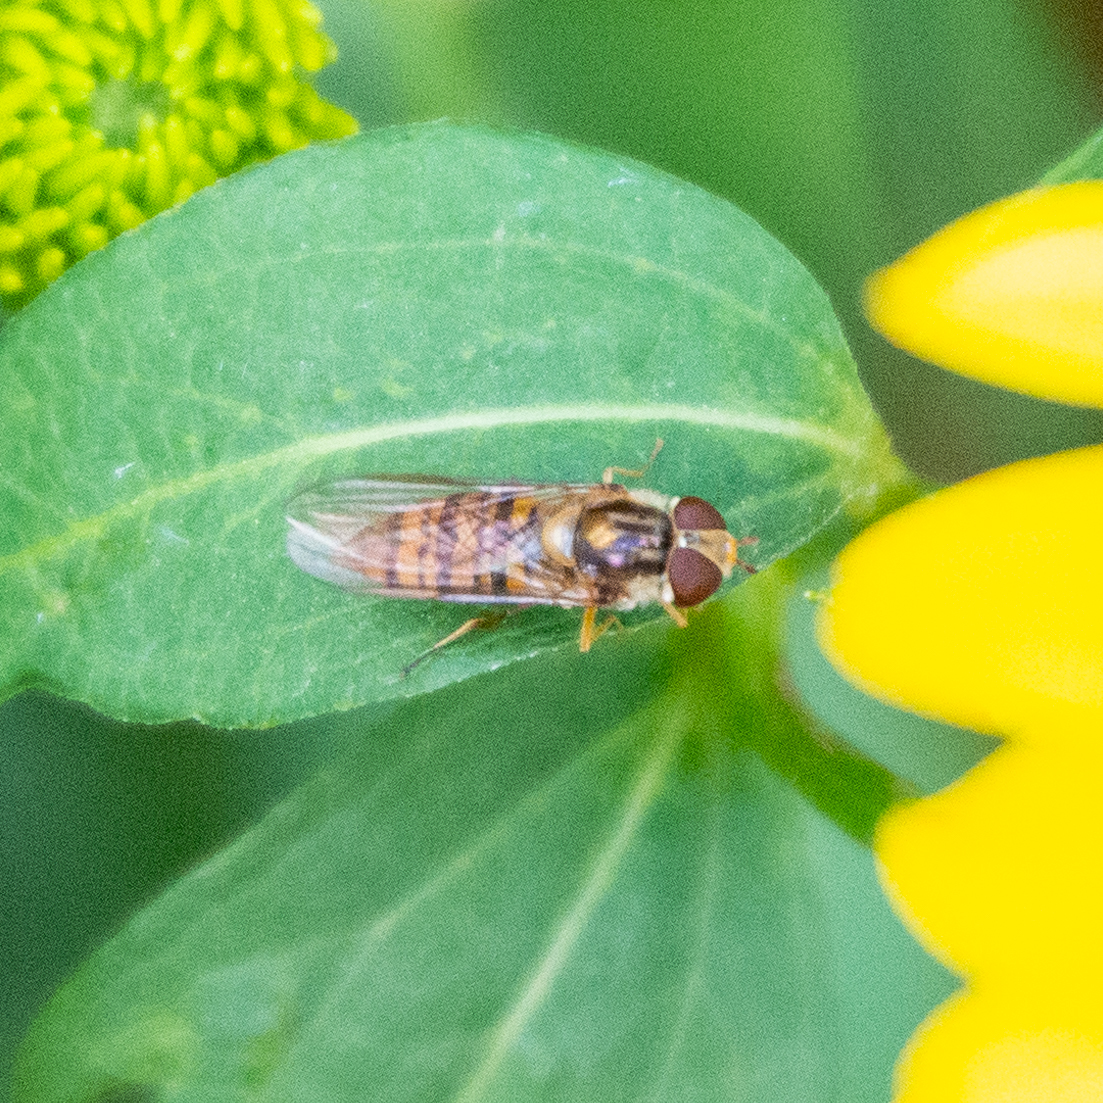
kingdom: Animalia
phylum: Arthropoda
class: Insecta
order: Diptera
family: Syrphidae
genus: Episyrphus
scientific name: Episyrphus balteatus
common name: Marmalade hoverfly
